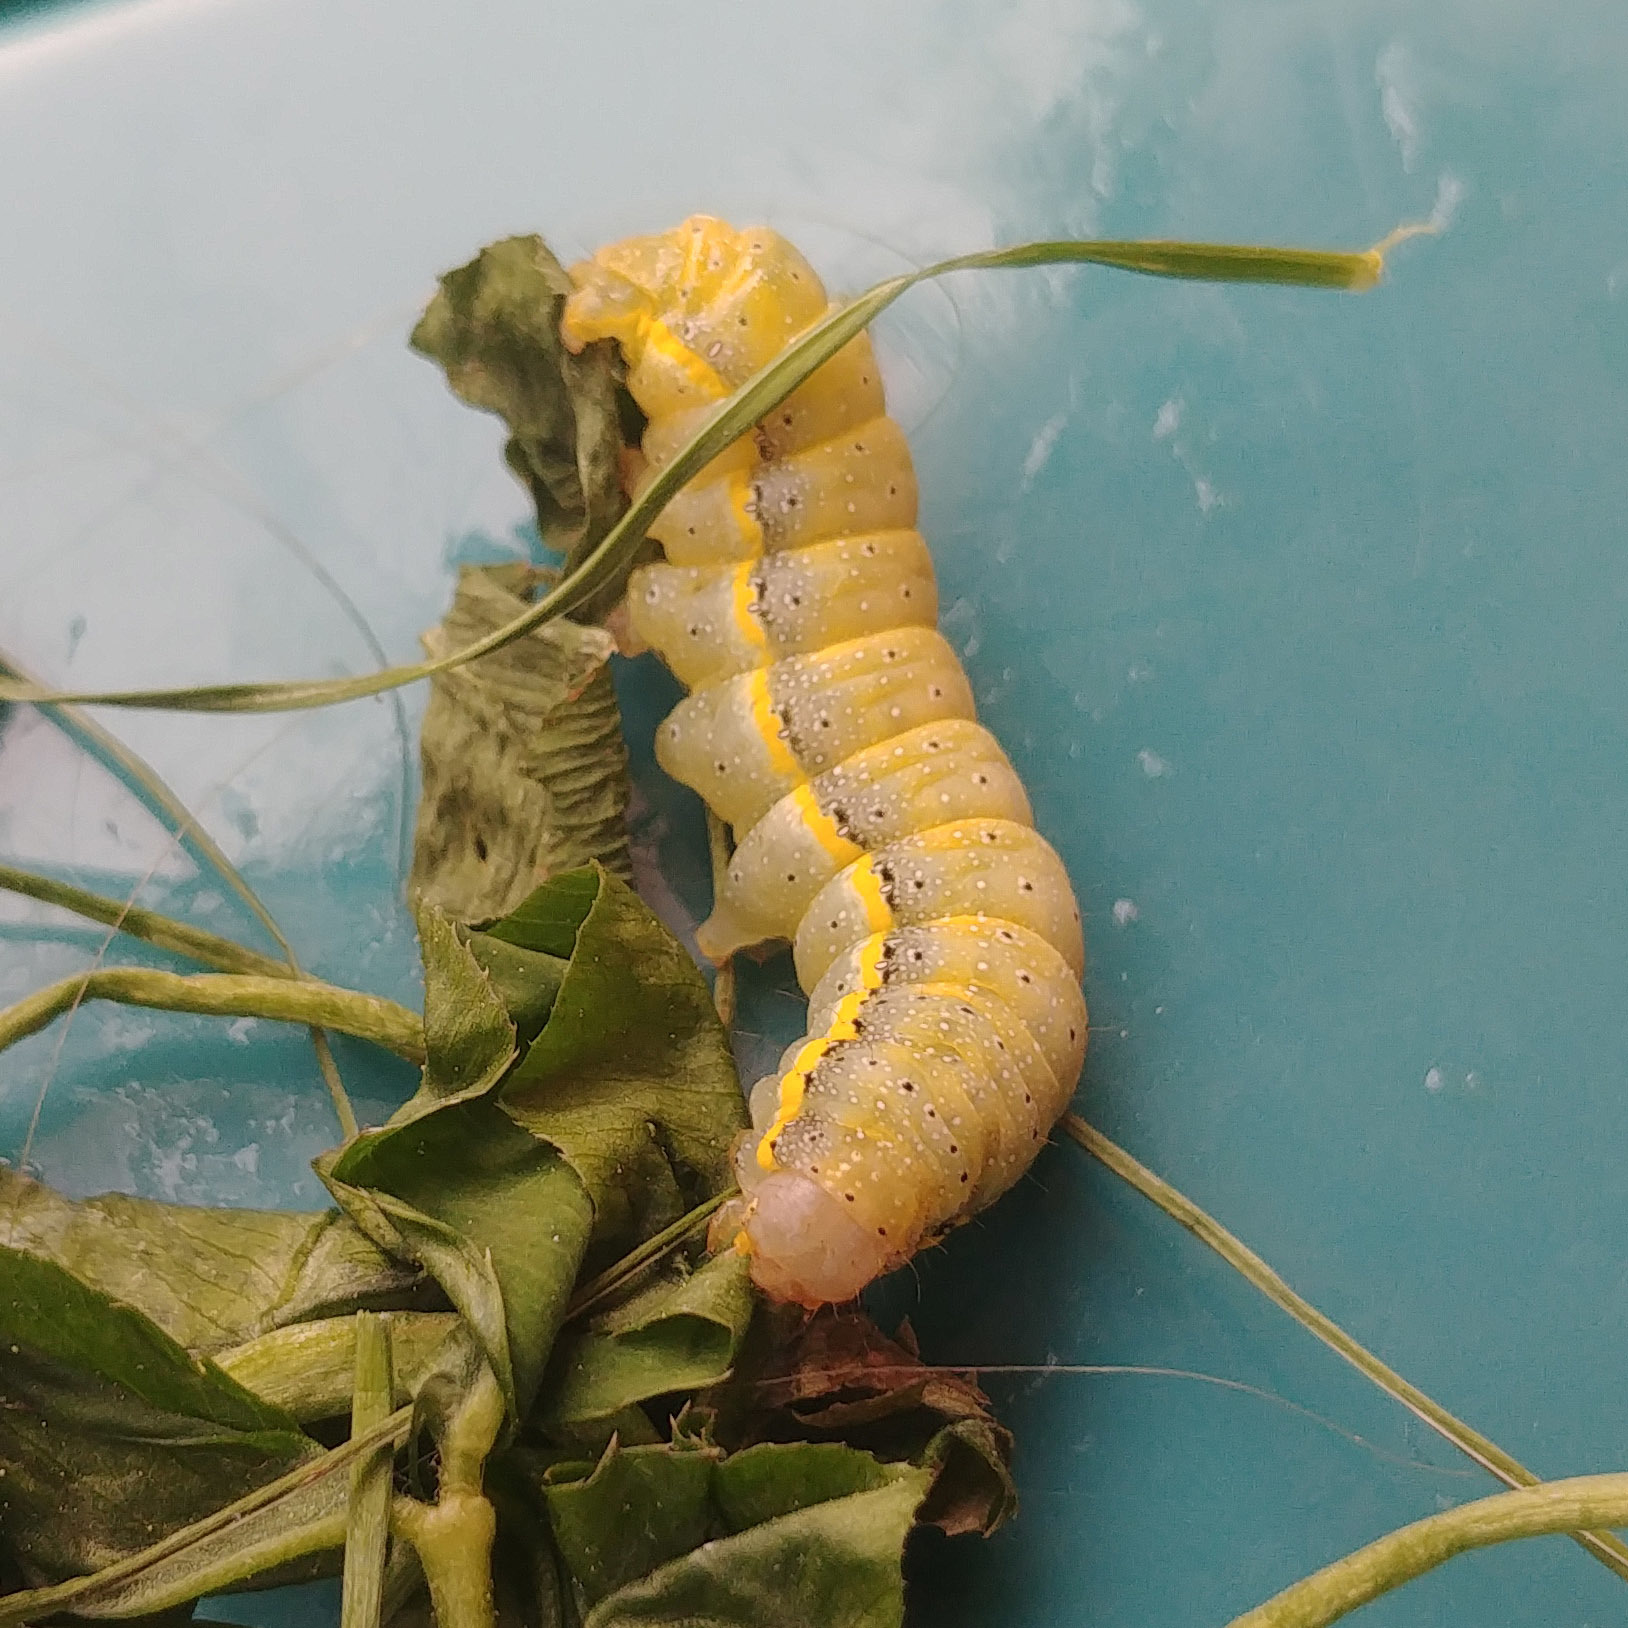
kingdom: Animalia
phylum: Arthropoda
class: Insecta
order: Lepidoptera
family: Noctuidae
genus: Lacanobia
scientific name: Lacanobia oleracea
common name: Bright-line brown-eye
